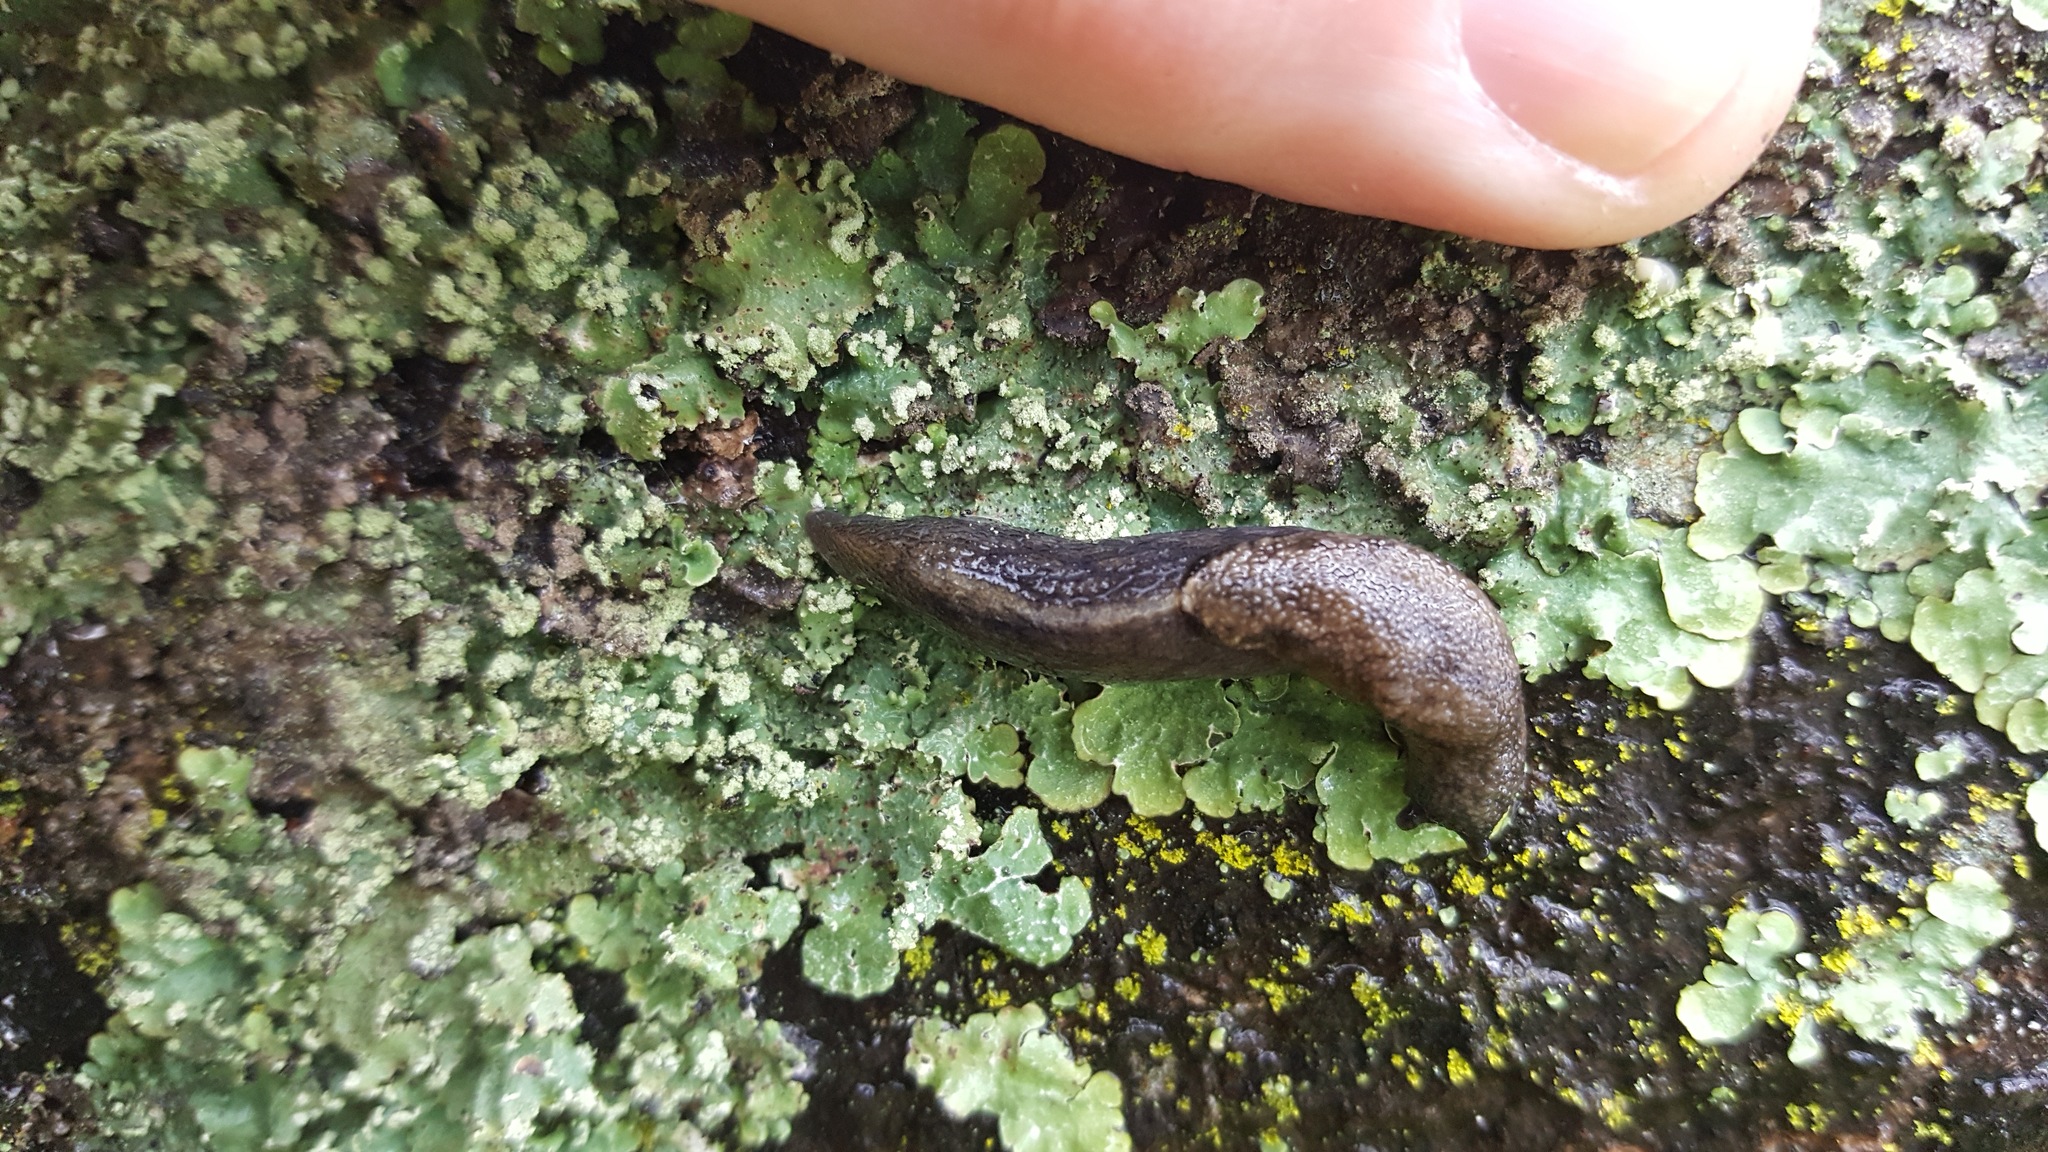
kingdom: Animalia
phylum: Mollusca
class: Gastropoda
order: Stylommatophora
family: Ariolimacidae
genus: Prophysaon
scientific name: Prophysaon andersonii
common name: Reticulate taildropper
